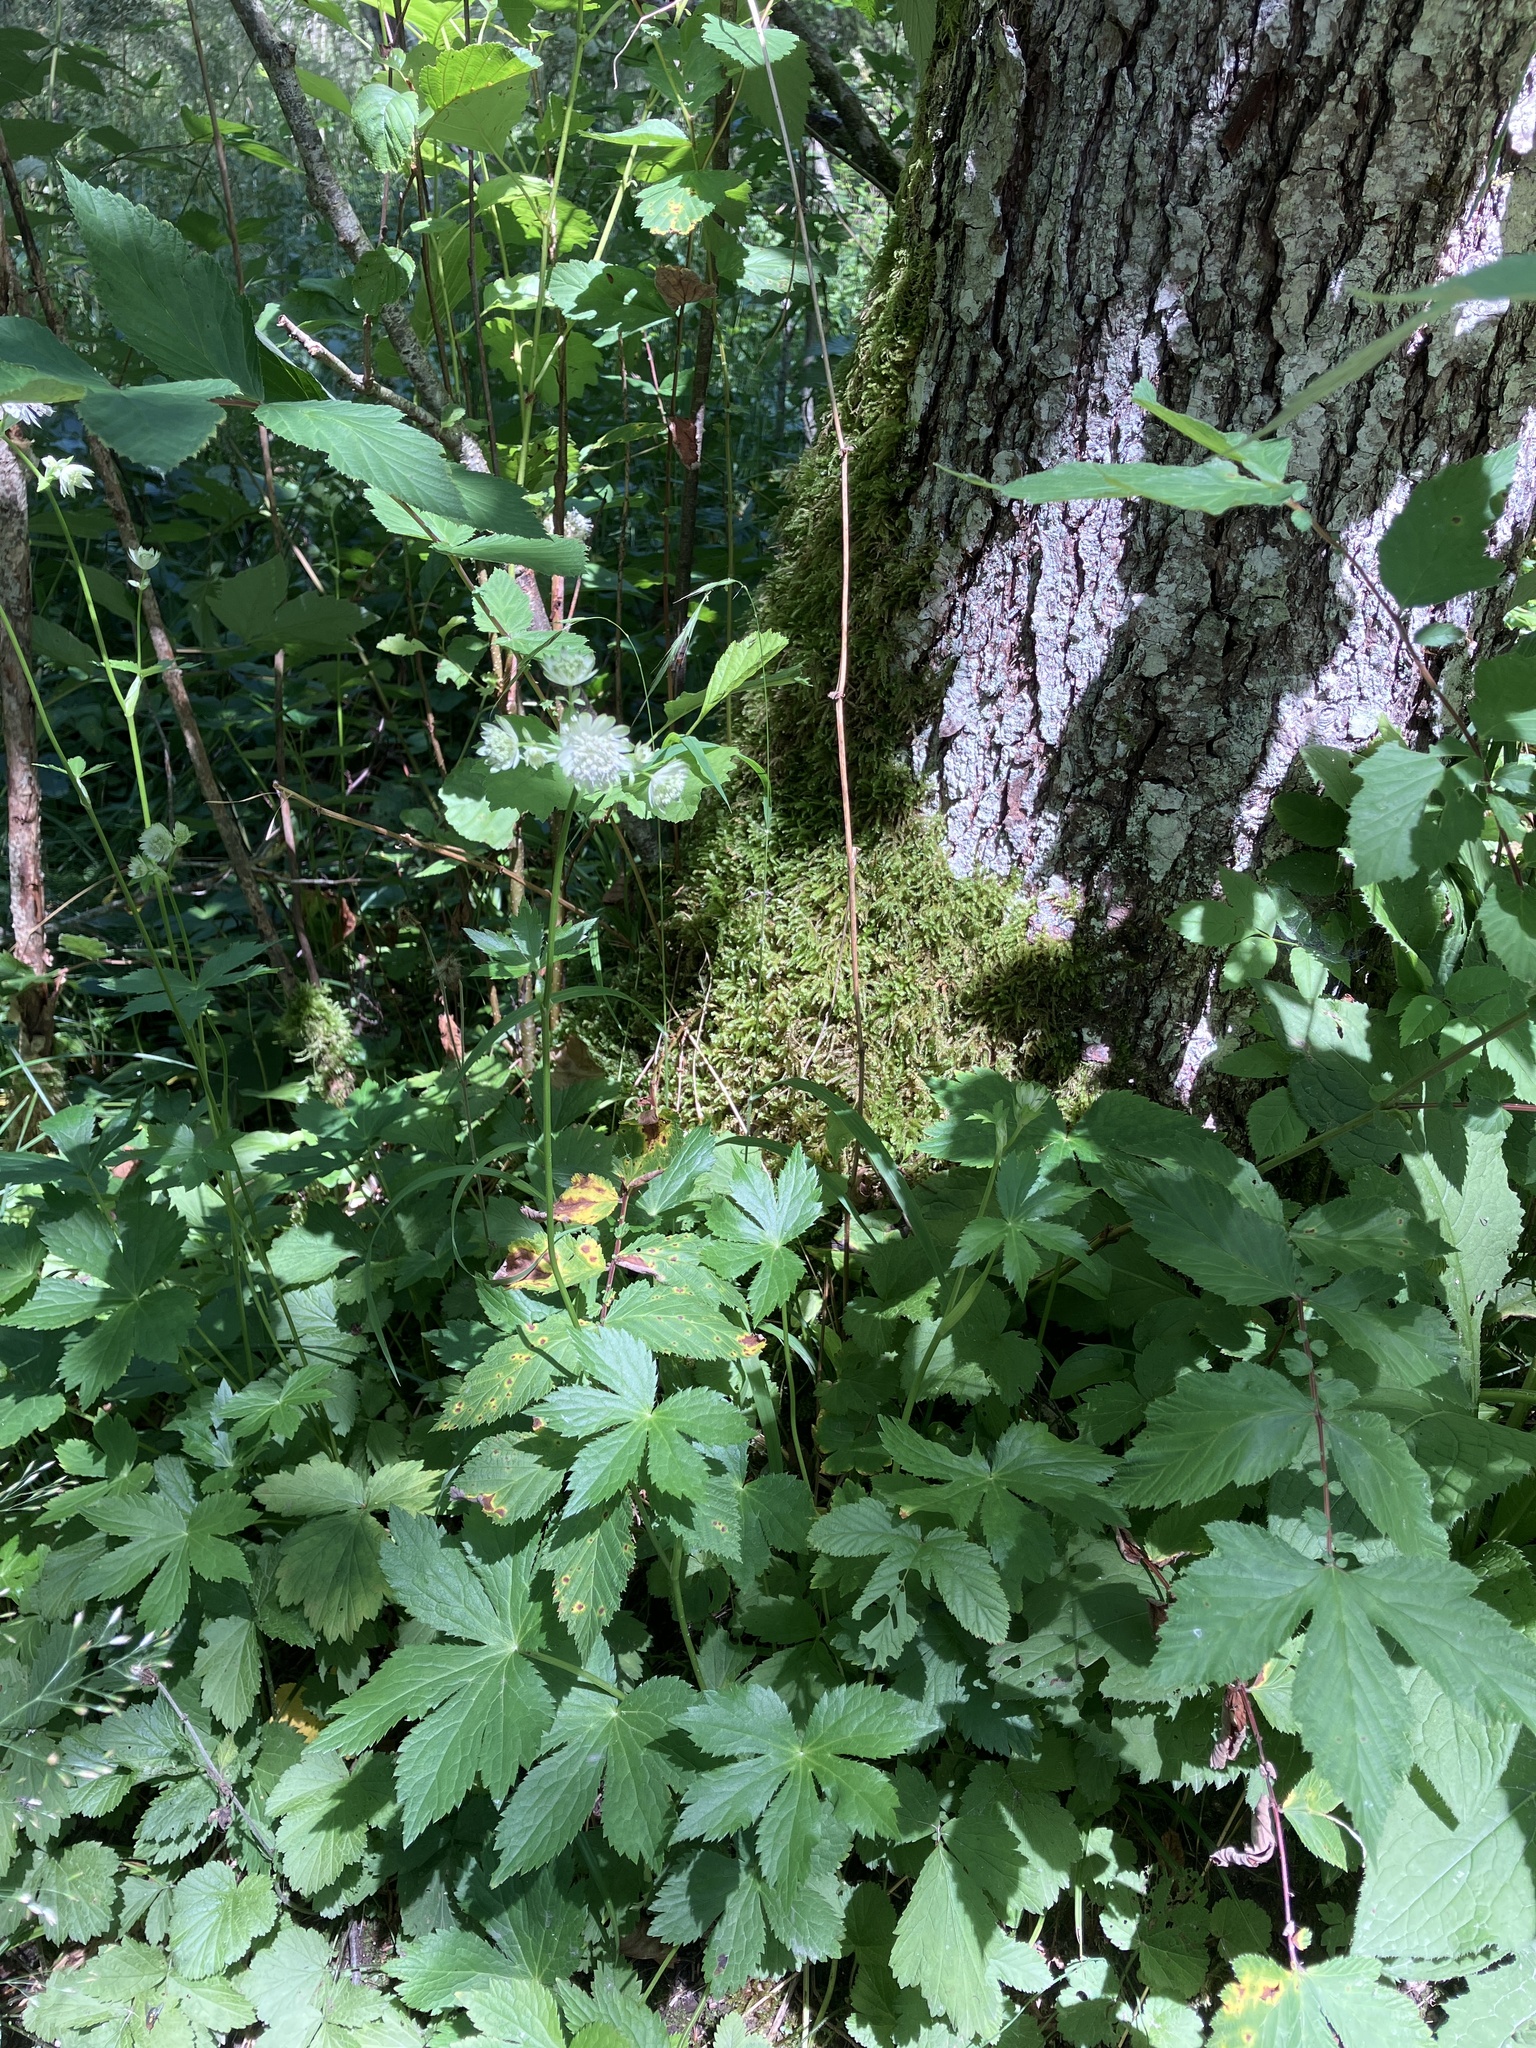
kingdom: Plantae
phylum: Tracheophyta
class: Magnoliopsida
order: Apiales
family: Apiaceae
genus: Astrantia
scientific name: Astrantia major
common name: Greater masterwort
